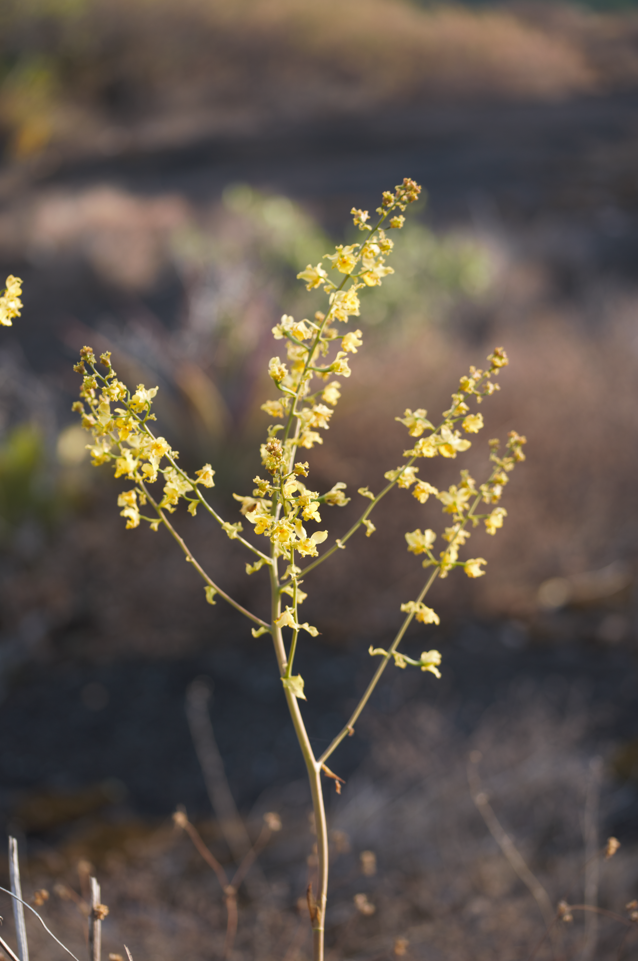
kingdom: Plantae
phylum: Tracheophyta
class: Liliopsida
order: Asparagales
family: Orchidaceae
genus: Cyrtopodium
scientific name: Cyrtopodium andersonii
